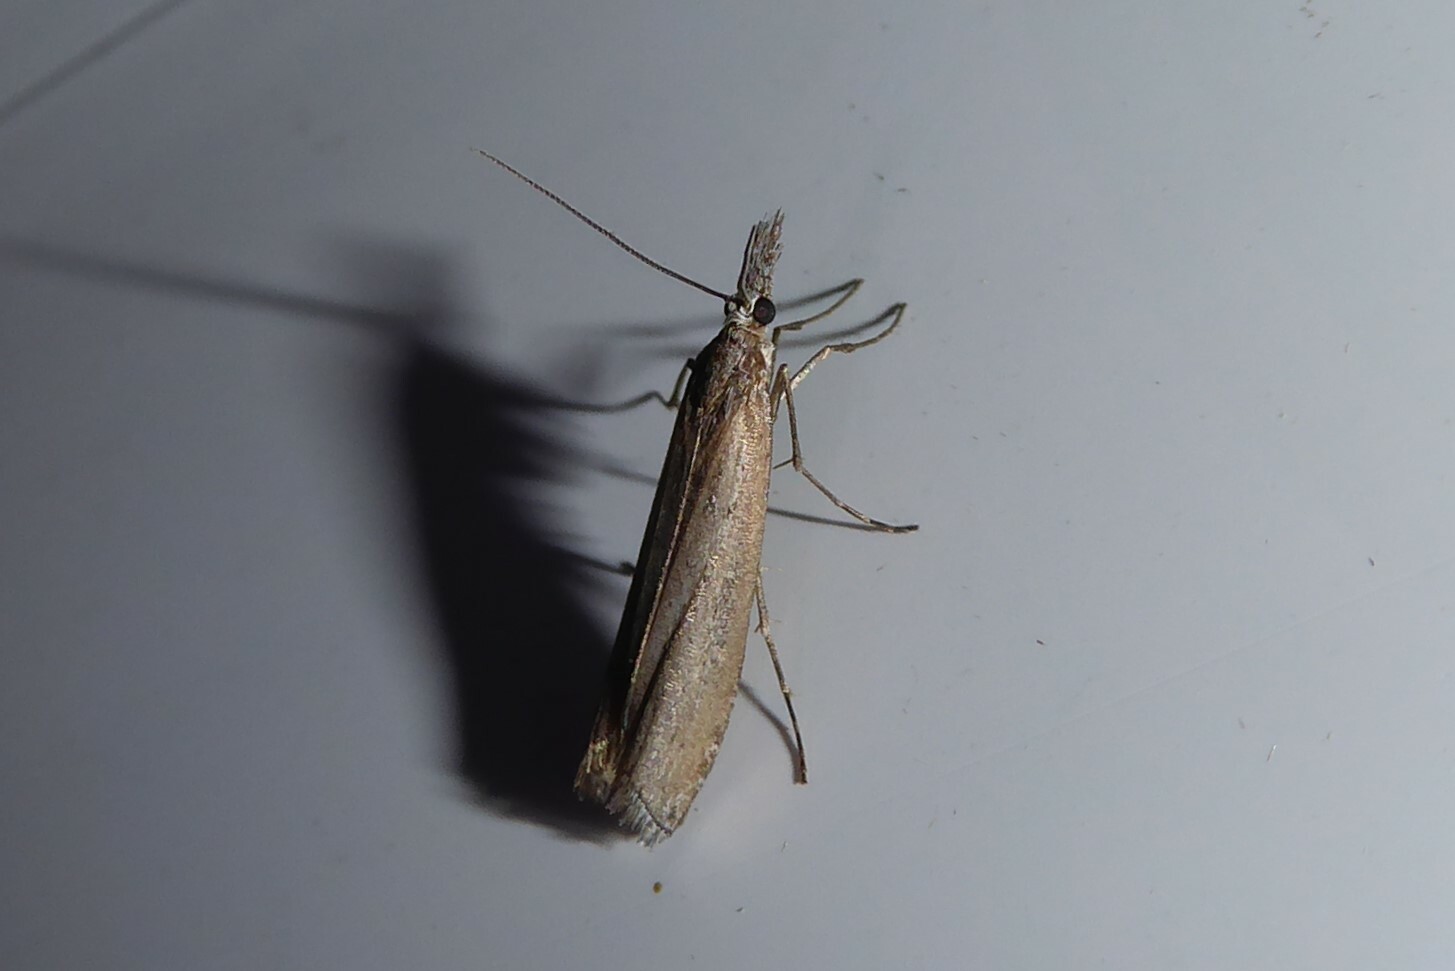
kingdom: Animalia
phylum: Arthropoda
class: Insecta
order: Lepidoptera
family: Crambidae
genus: Orocrambus
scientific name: Orocrambus cyclopicus
